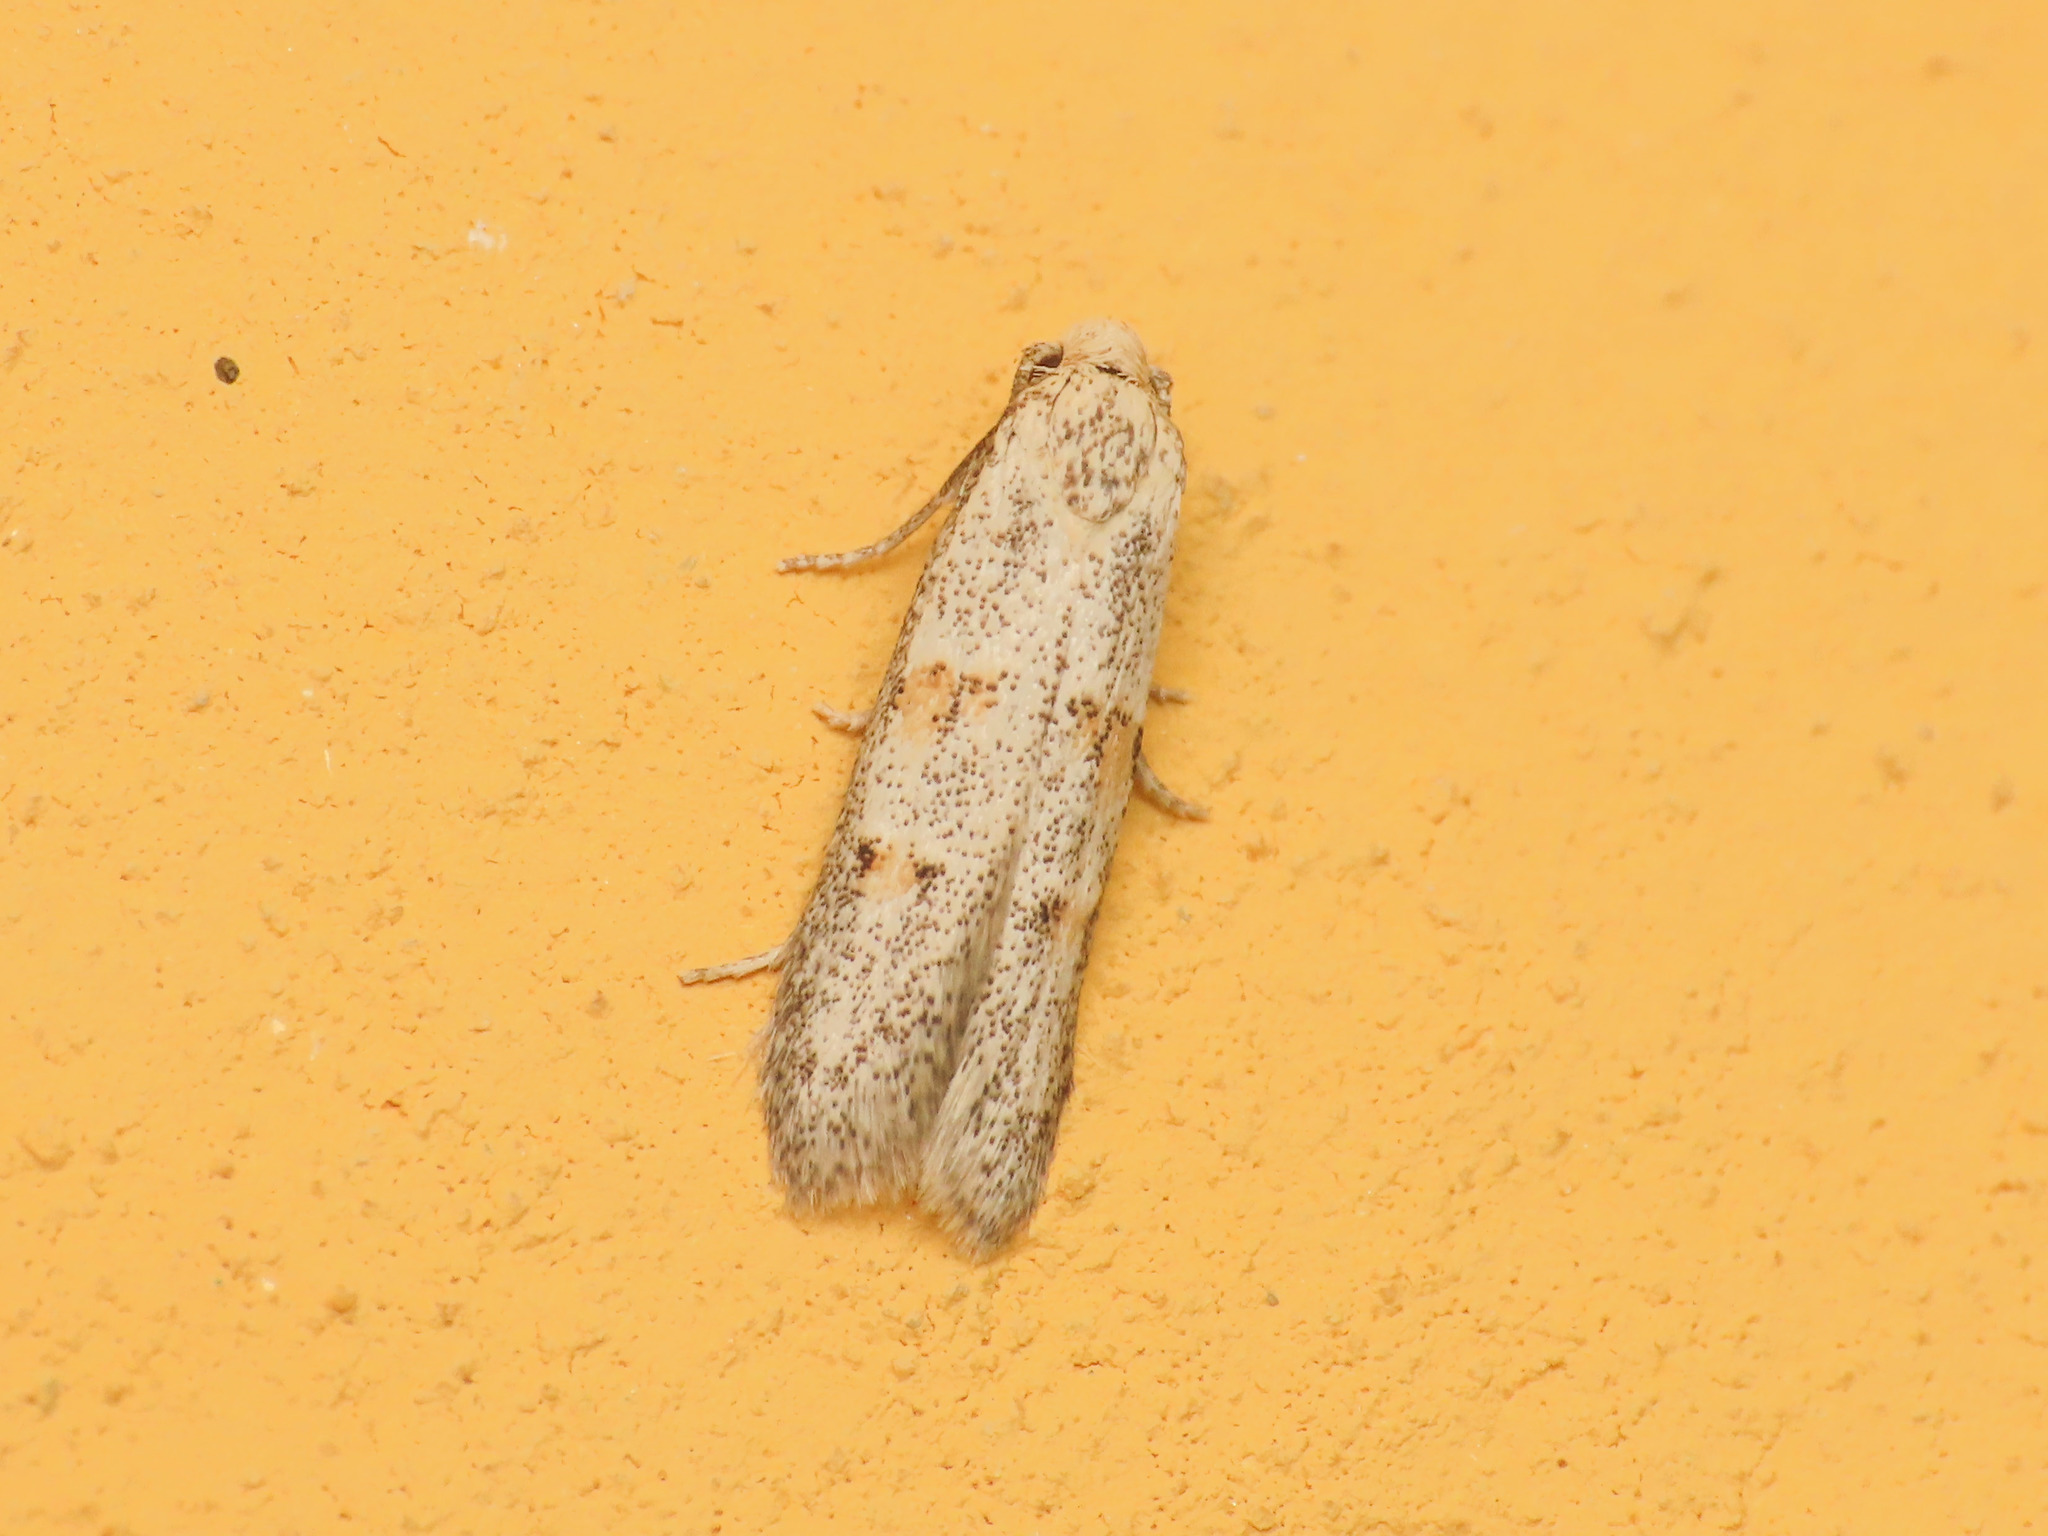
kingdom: Animalia
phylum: Arthropoda
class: Insecta
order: Lepidoptera
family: Autostichidae
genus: Symmocoides
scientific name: Symmocoides oxybiella
